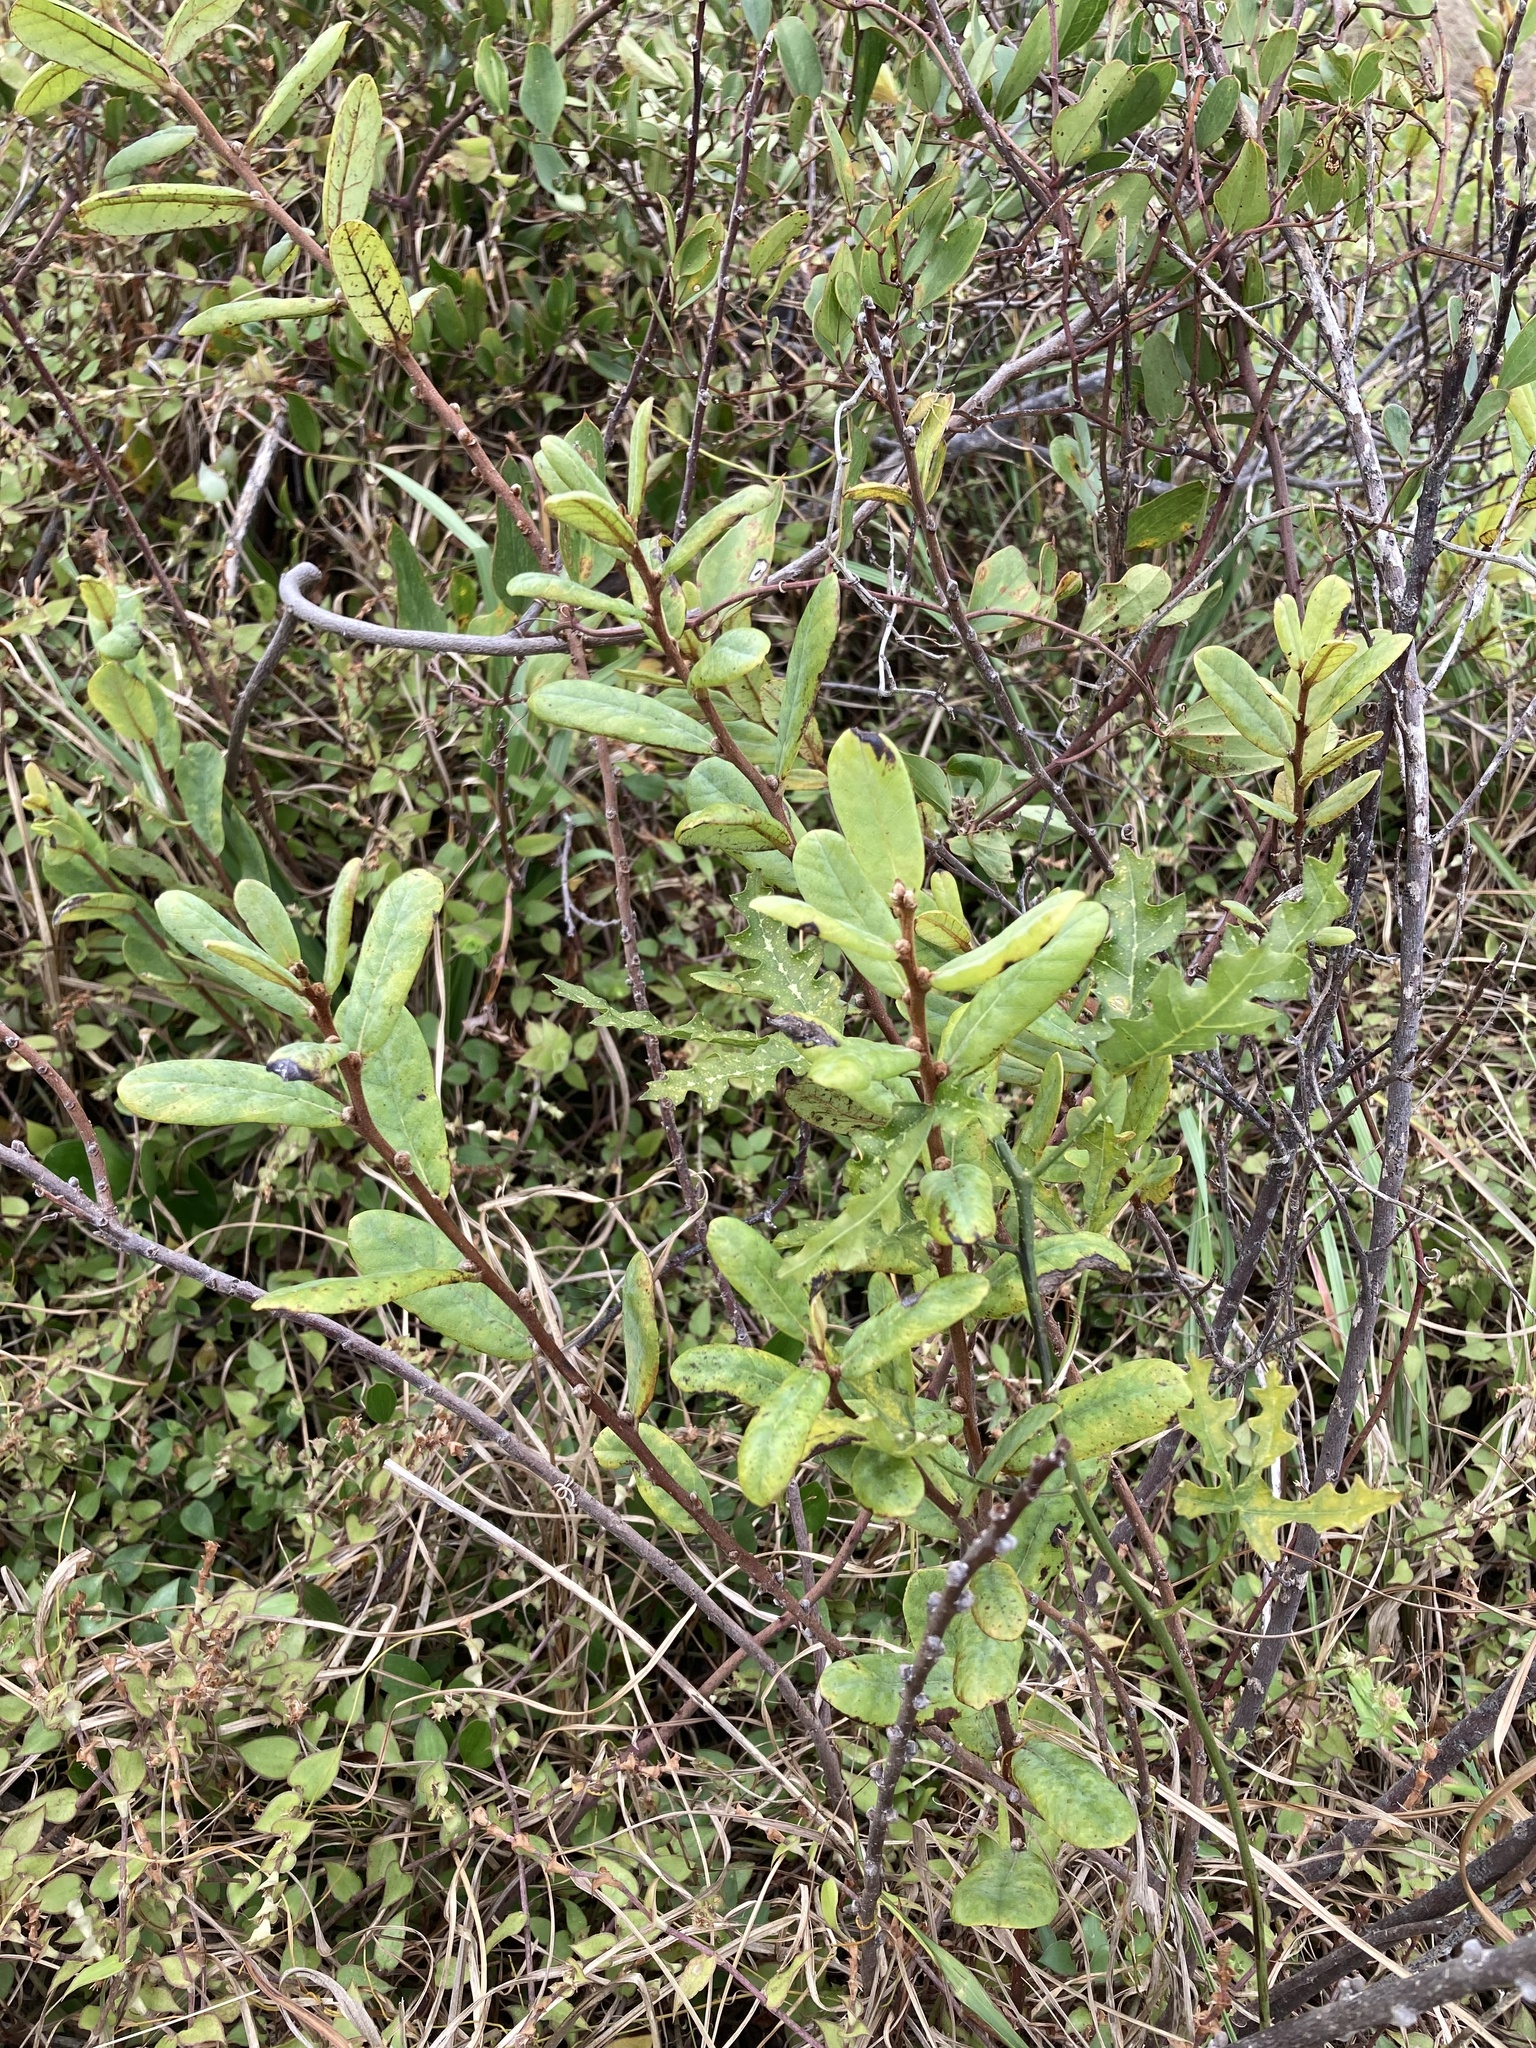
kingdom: Plantae
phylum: Tracheophyta
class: Magnoliopsida
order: Magnoliales
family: Annonaceae
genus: Asimina
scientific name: Asimina reticulata
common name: Flag pawpaw
